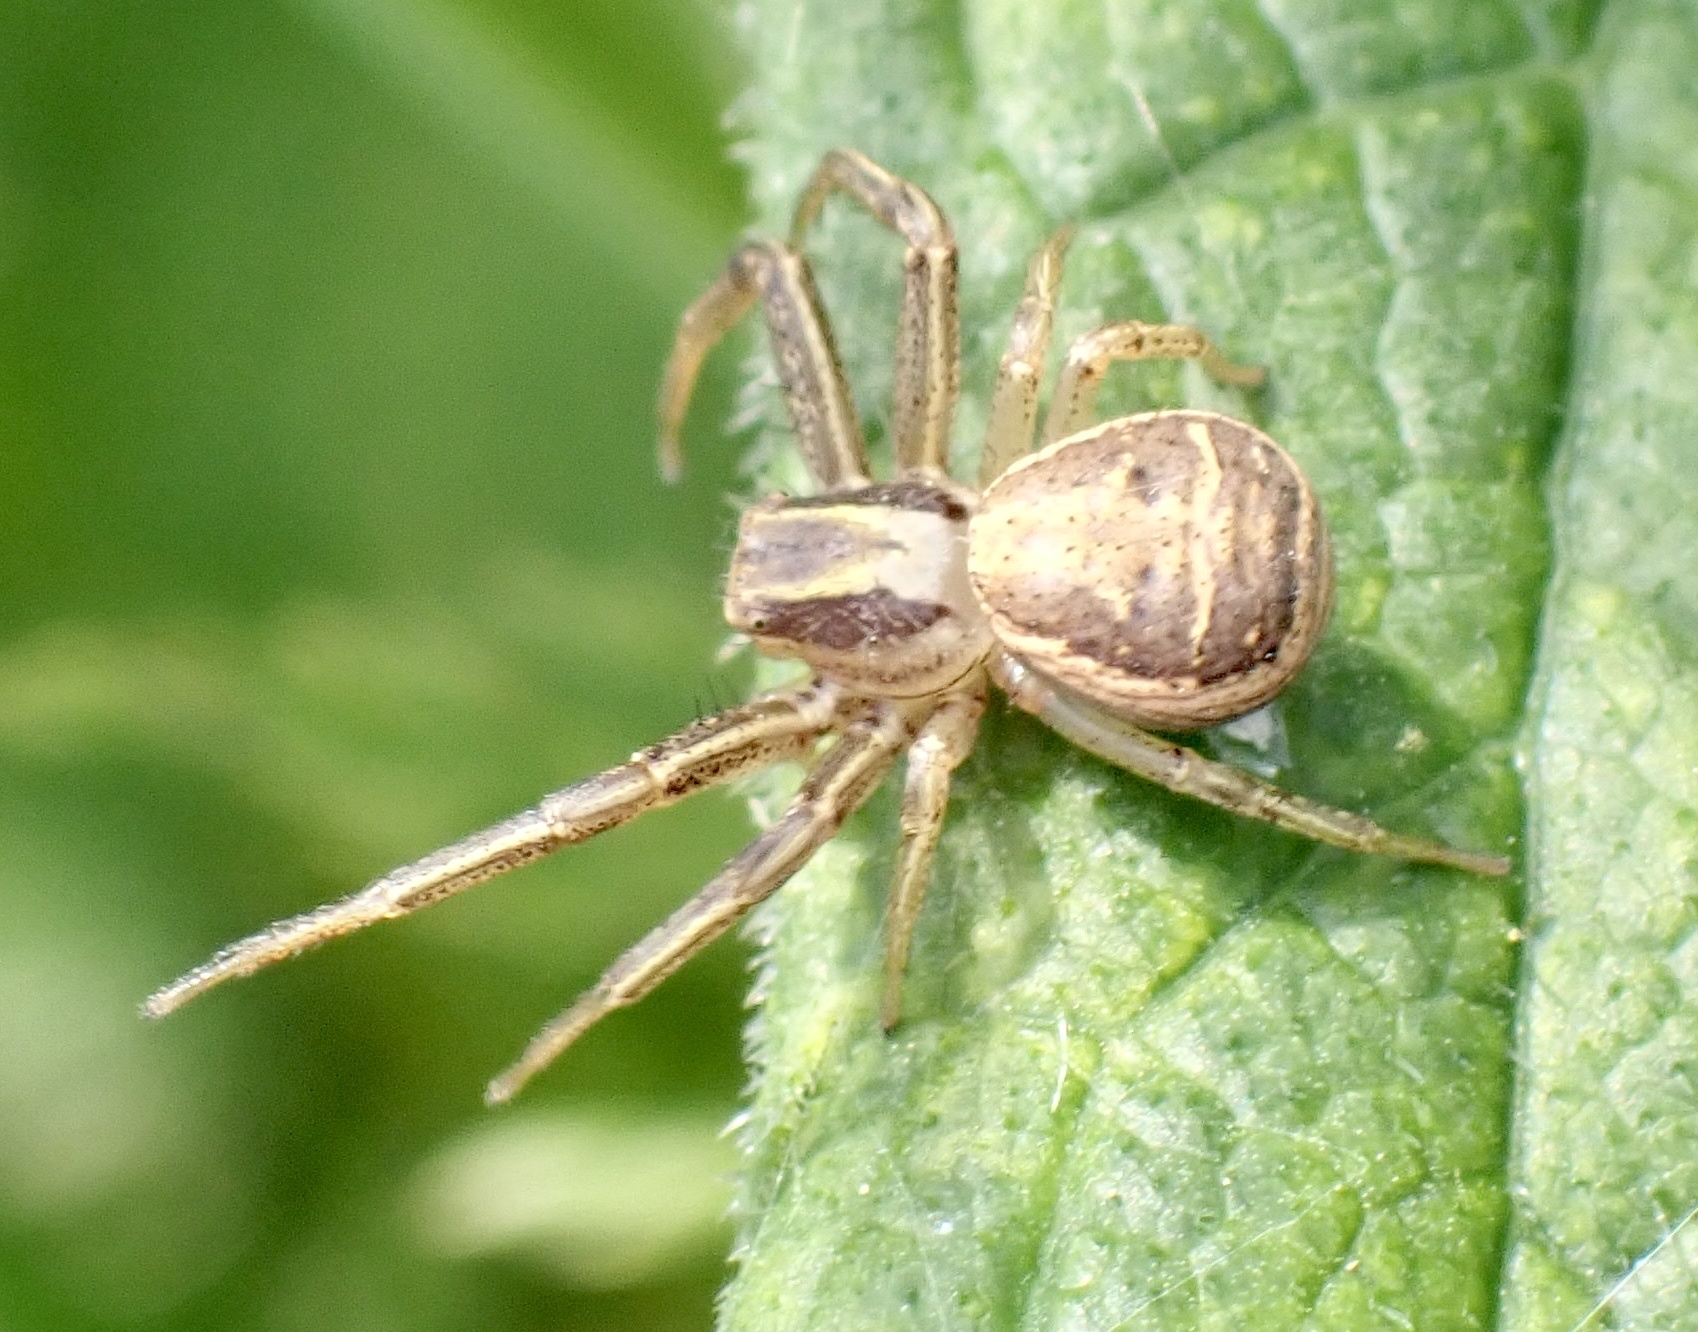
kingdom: Animalia
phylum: Arthropoda
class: Arachnida
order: Araneae
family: Thomisidae
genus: Xysticus
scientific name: Xysticus ulmi
